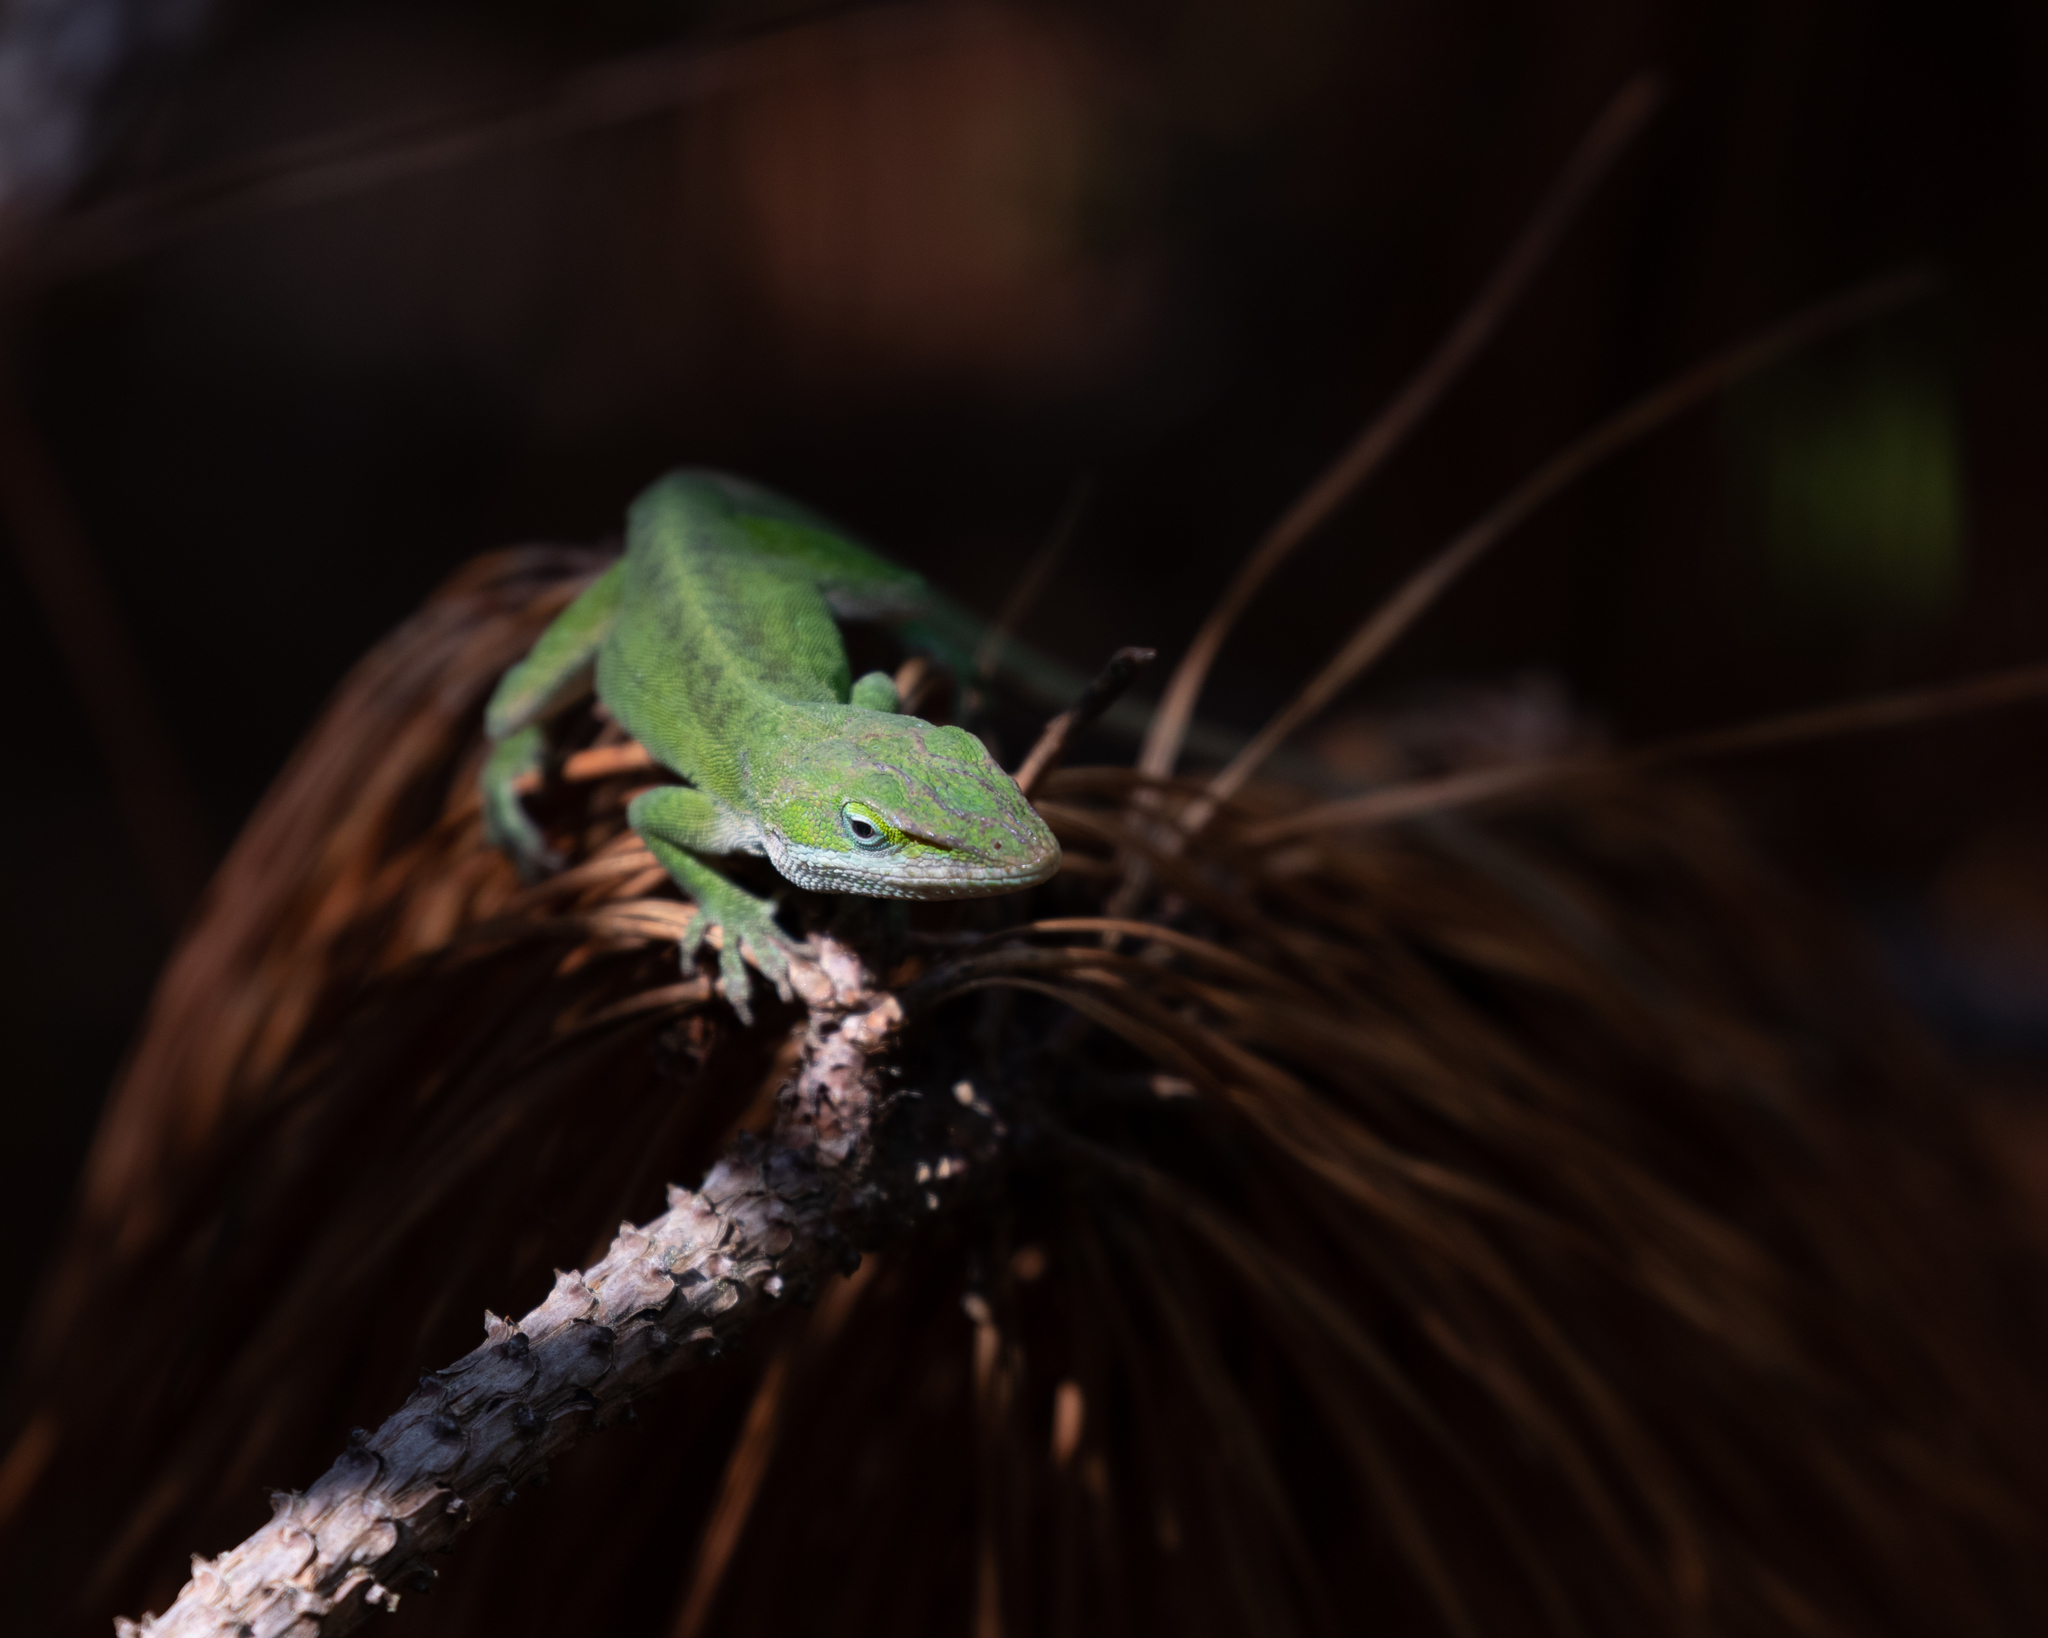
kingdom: Animalia
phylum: Chordata
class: Squamata
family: Dactyloidae
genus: Anolis
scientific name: Anolis carolinensis
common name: Green anole
